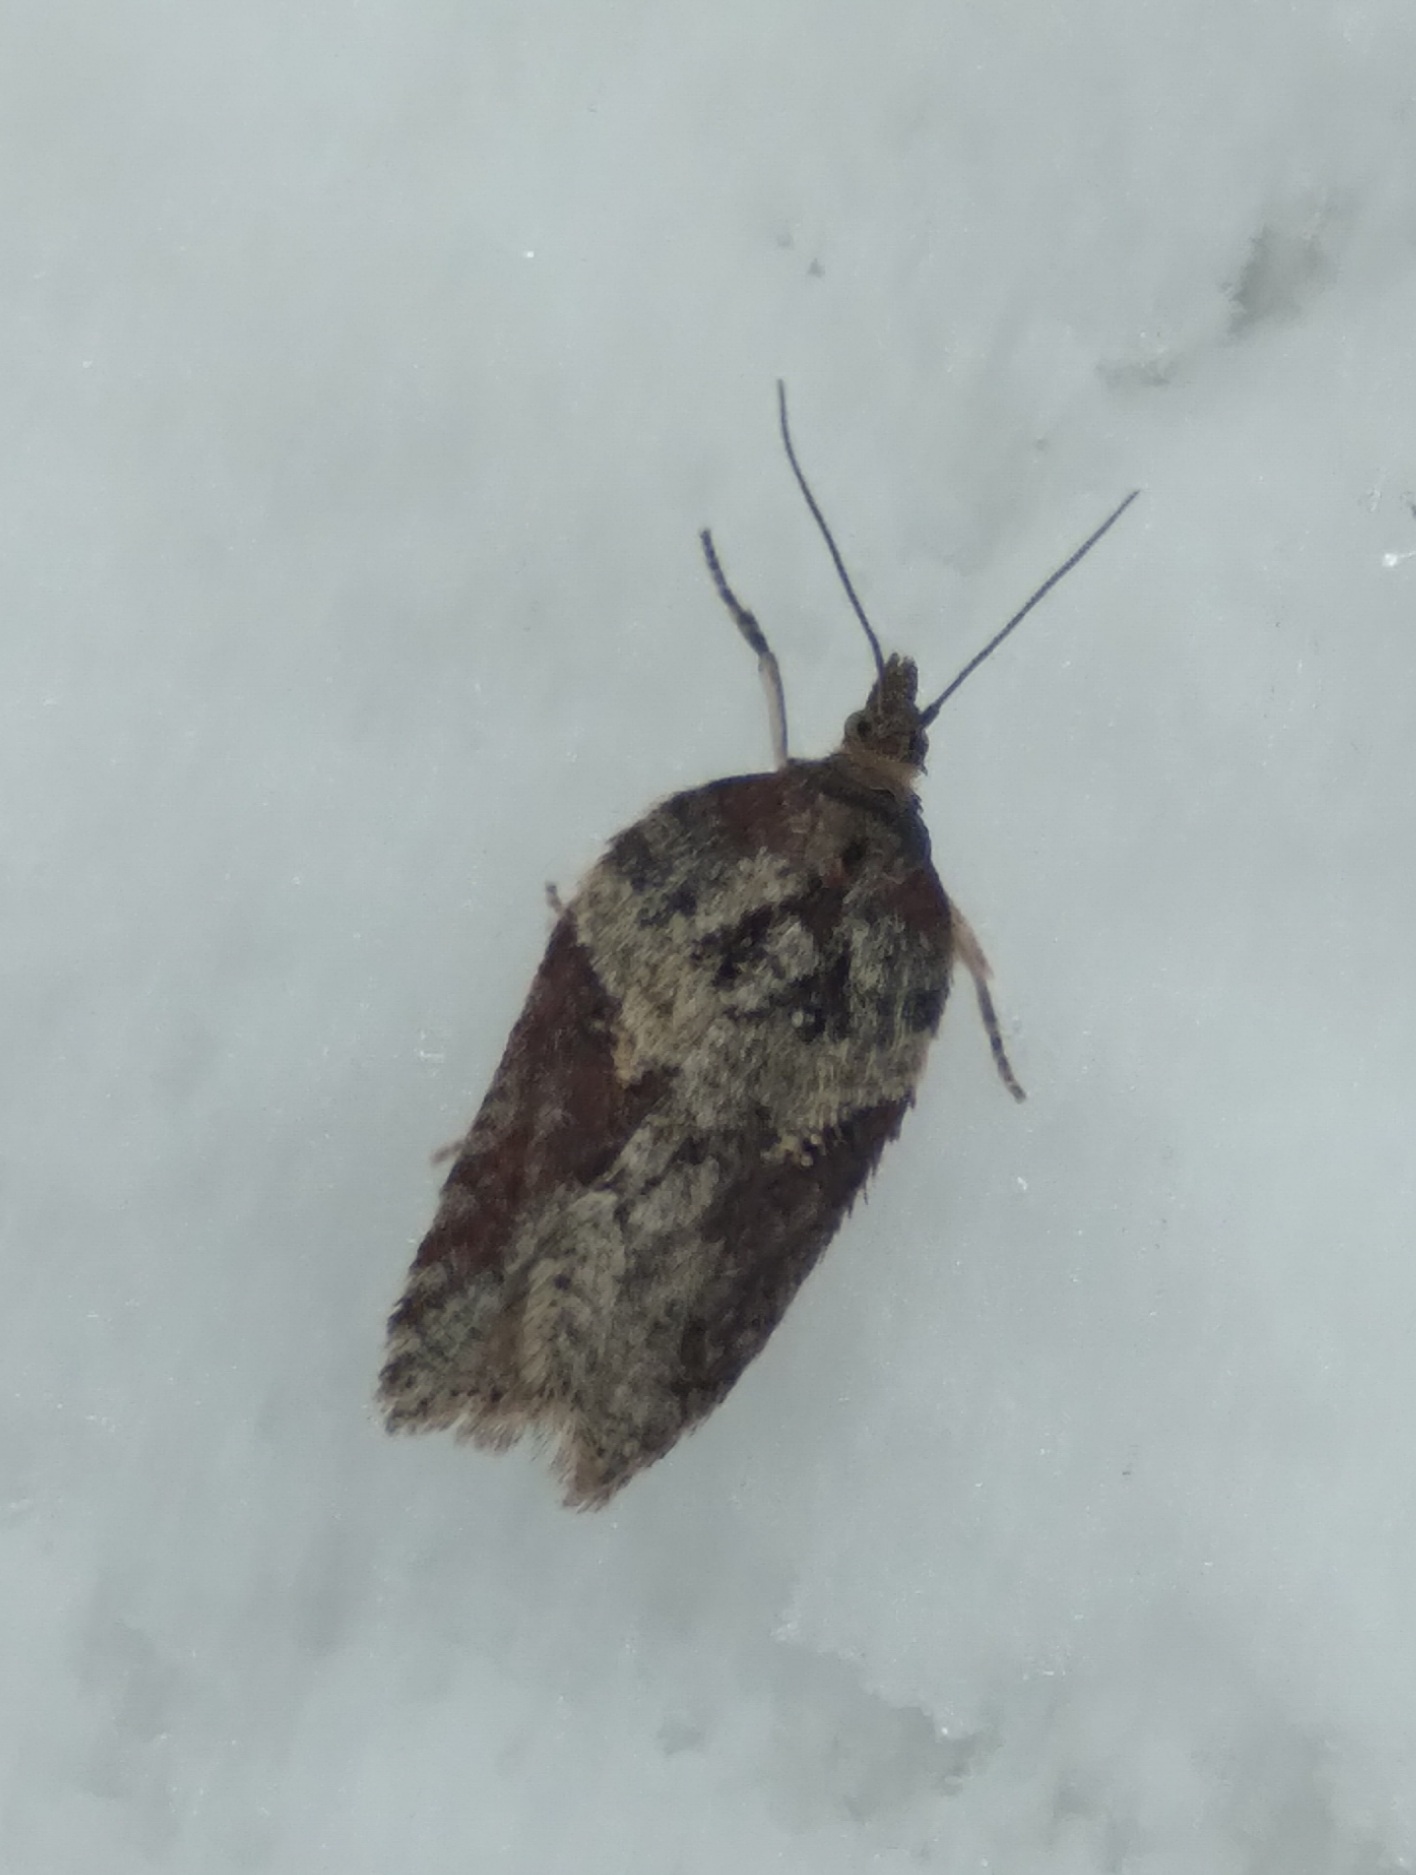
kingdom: Animalia
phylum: Arthropoda
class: Insecta
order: Lepidoptera
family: Tortricidae
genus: Acleris
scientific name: Acleris hastiana
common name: Sallow button
